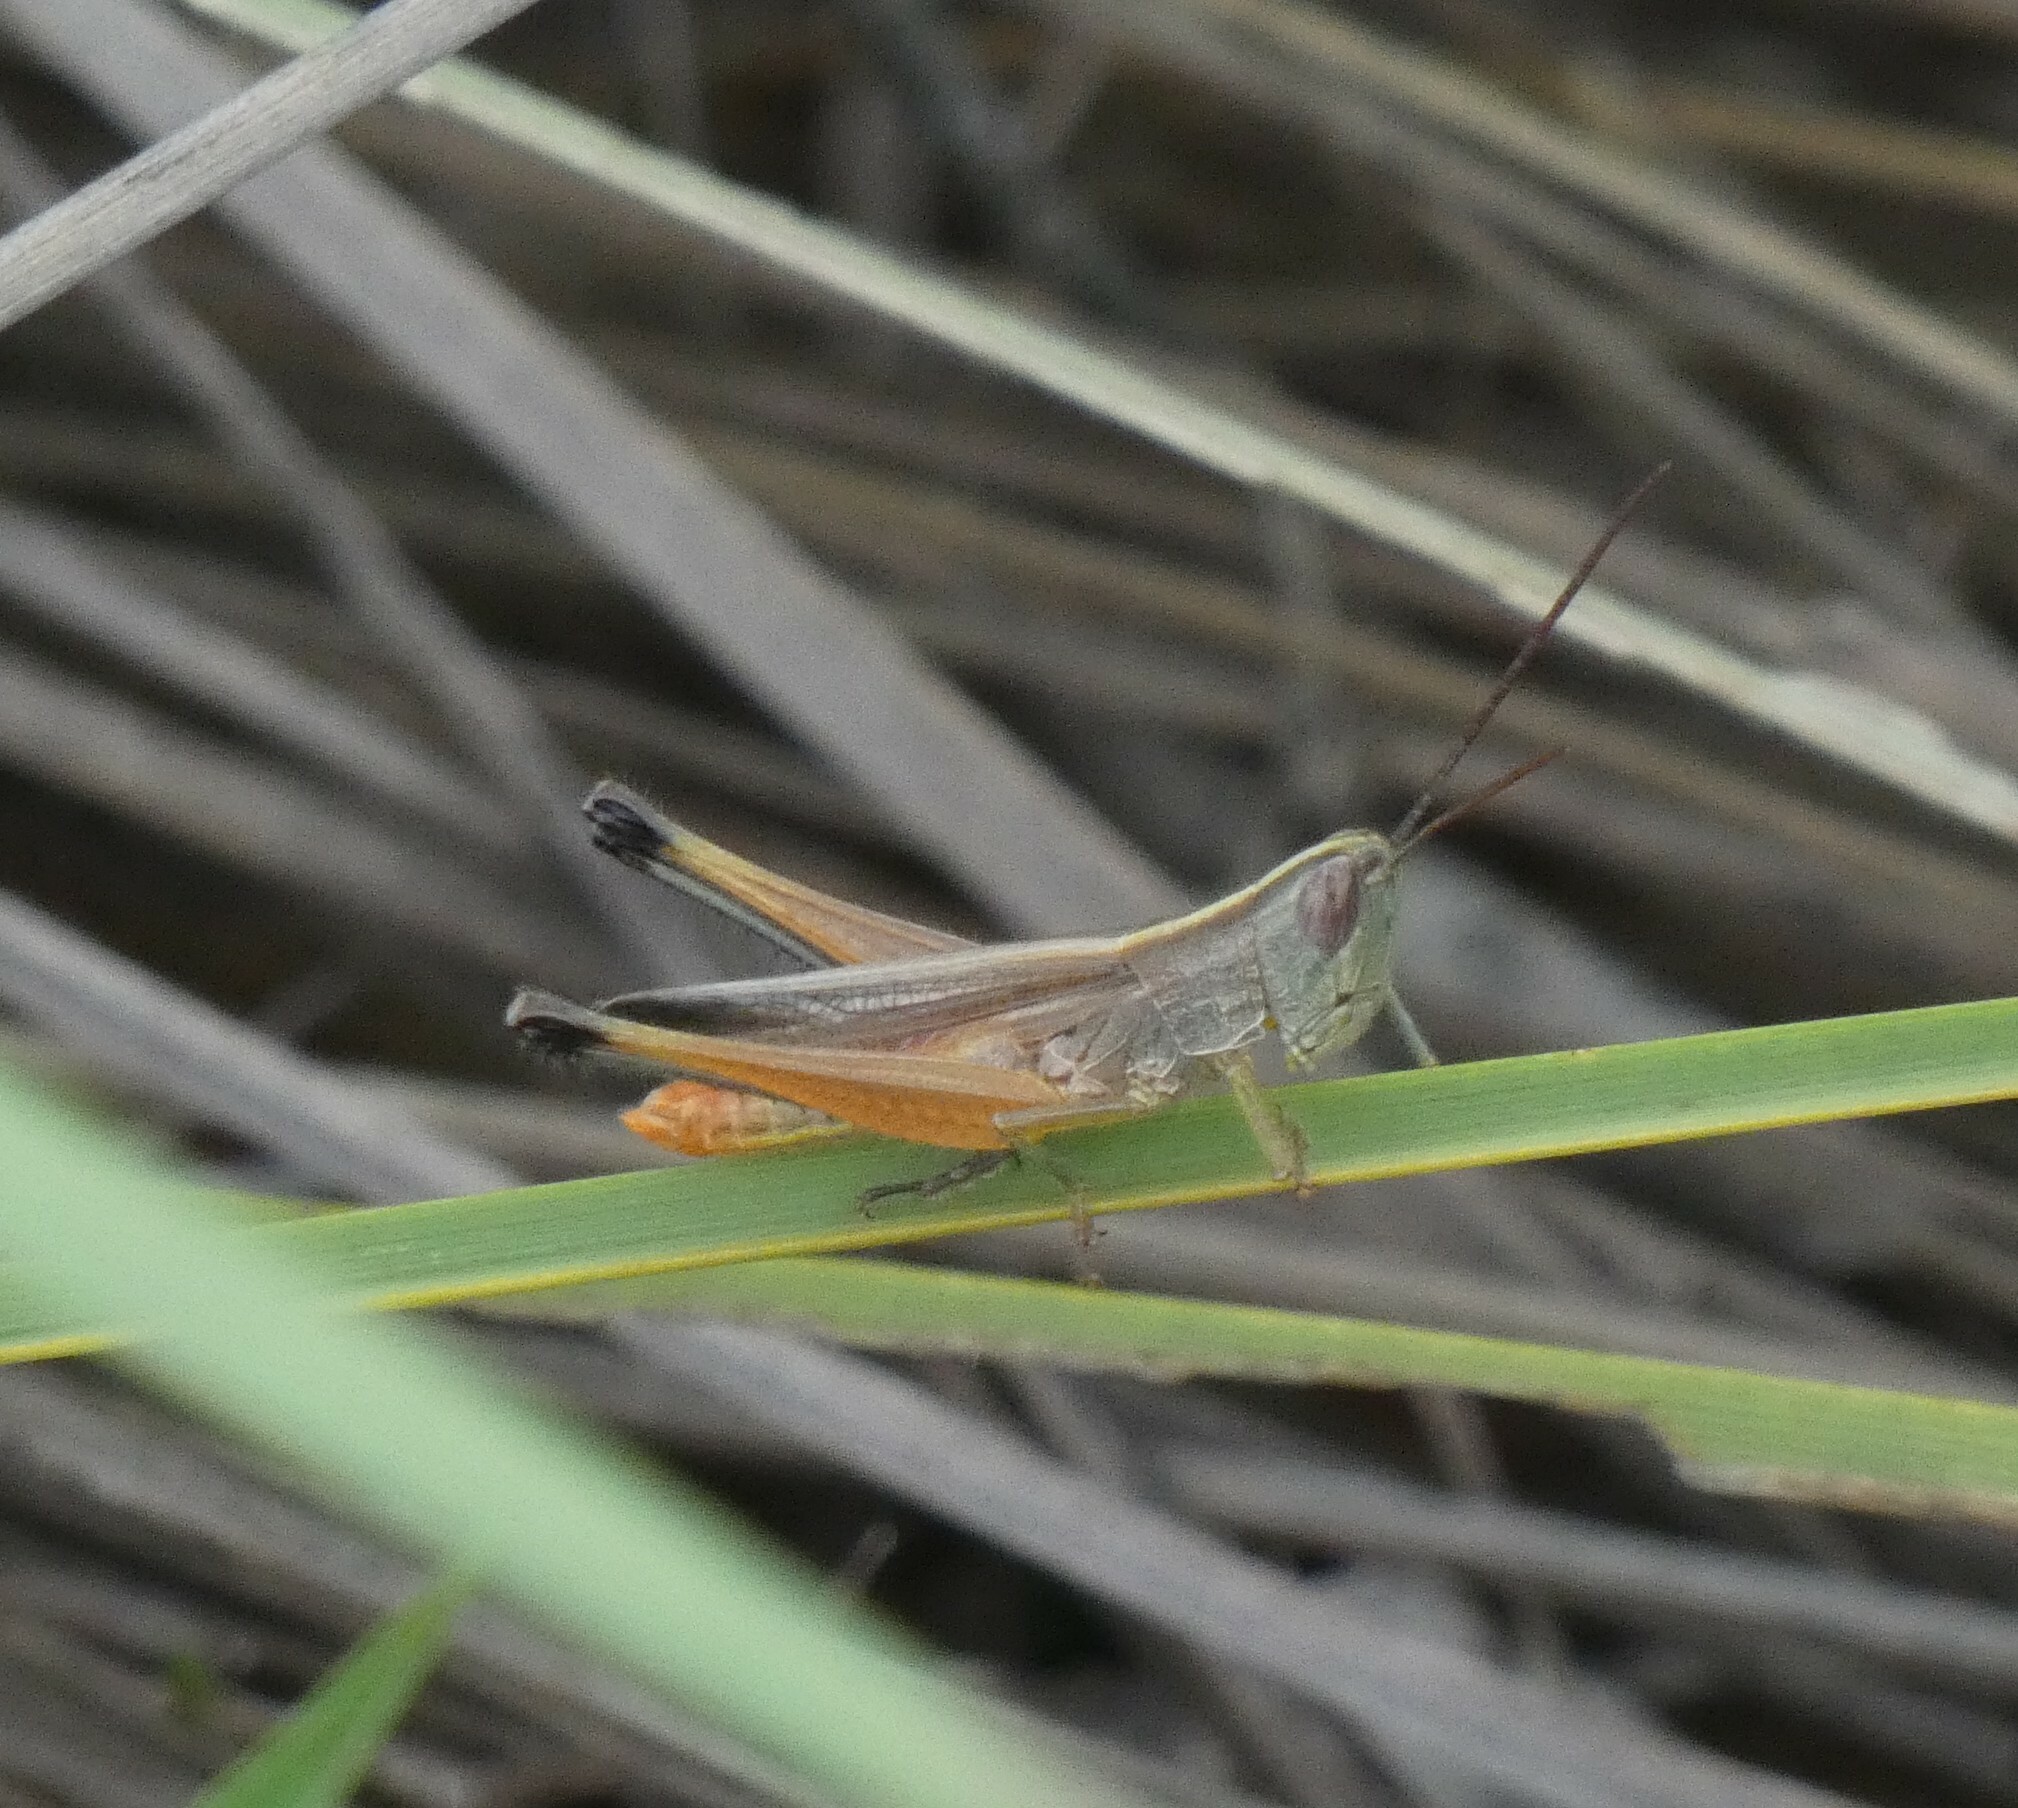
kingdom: Animalia
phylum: Arthropoda
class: Insecta
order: Orthoptera
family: Acrididae
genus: Staurorhectus
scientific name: Staurorhectus longicornis
